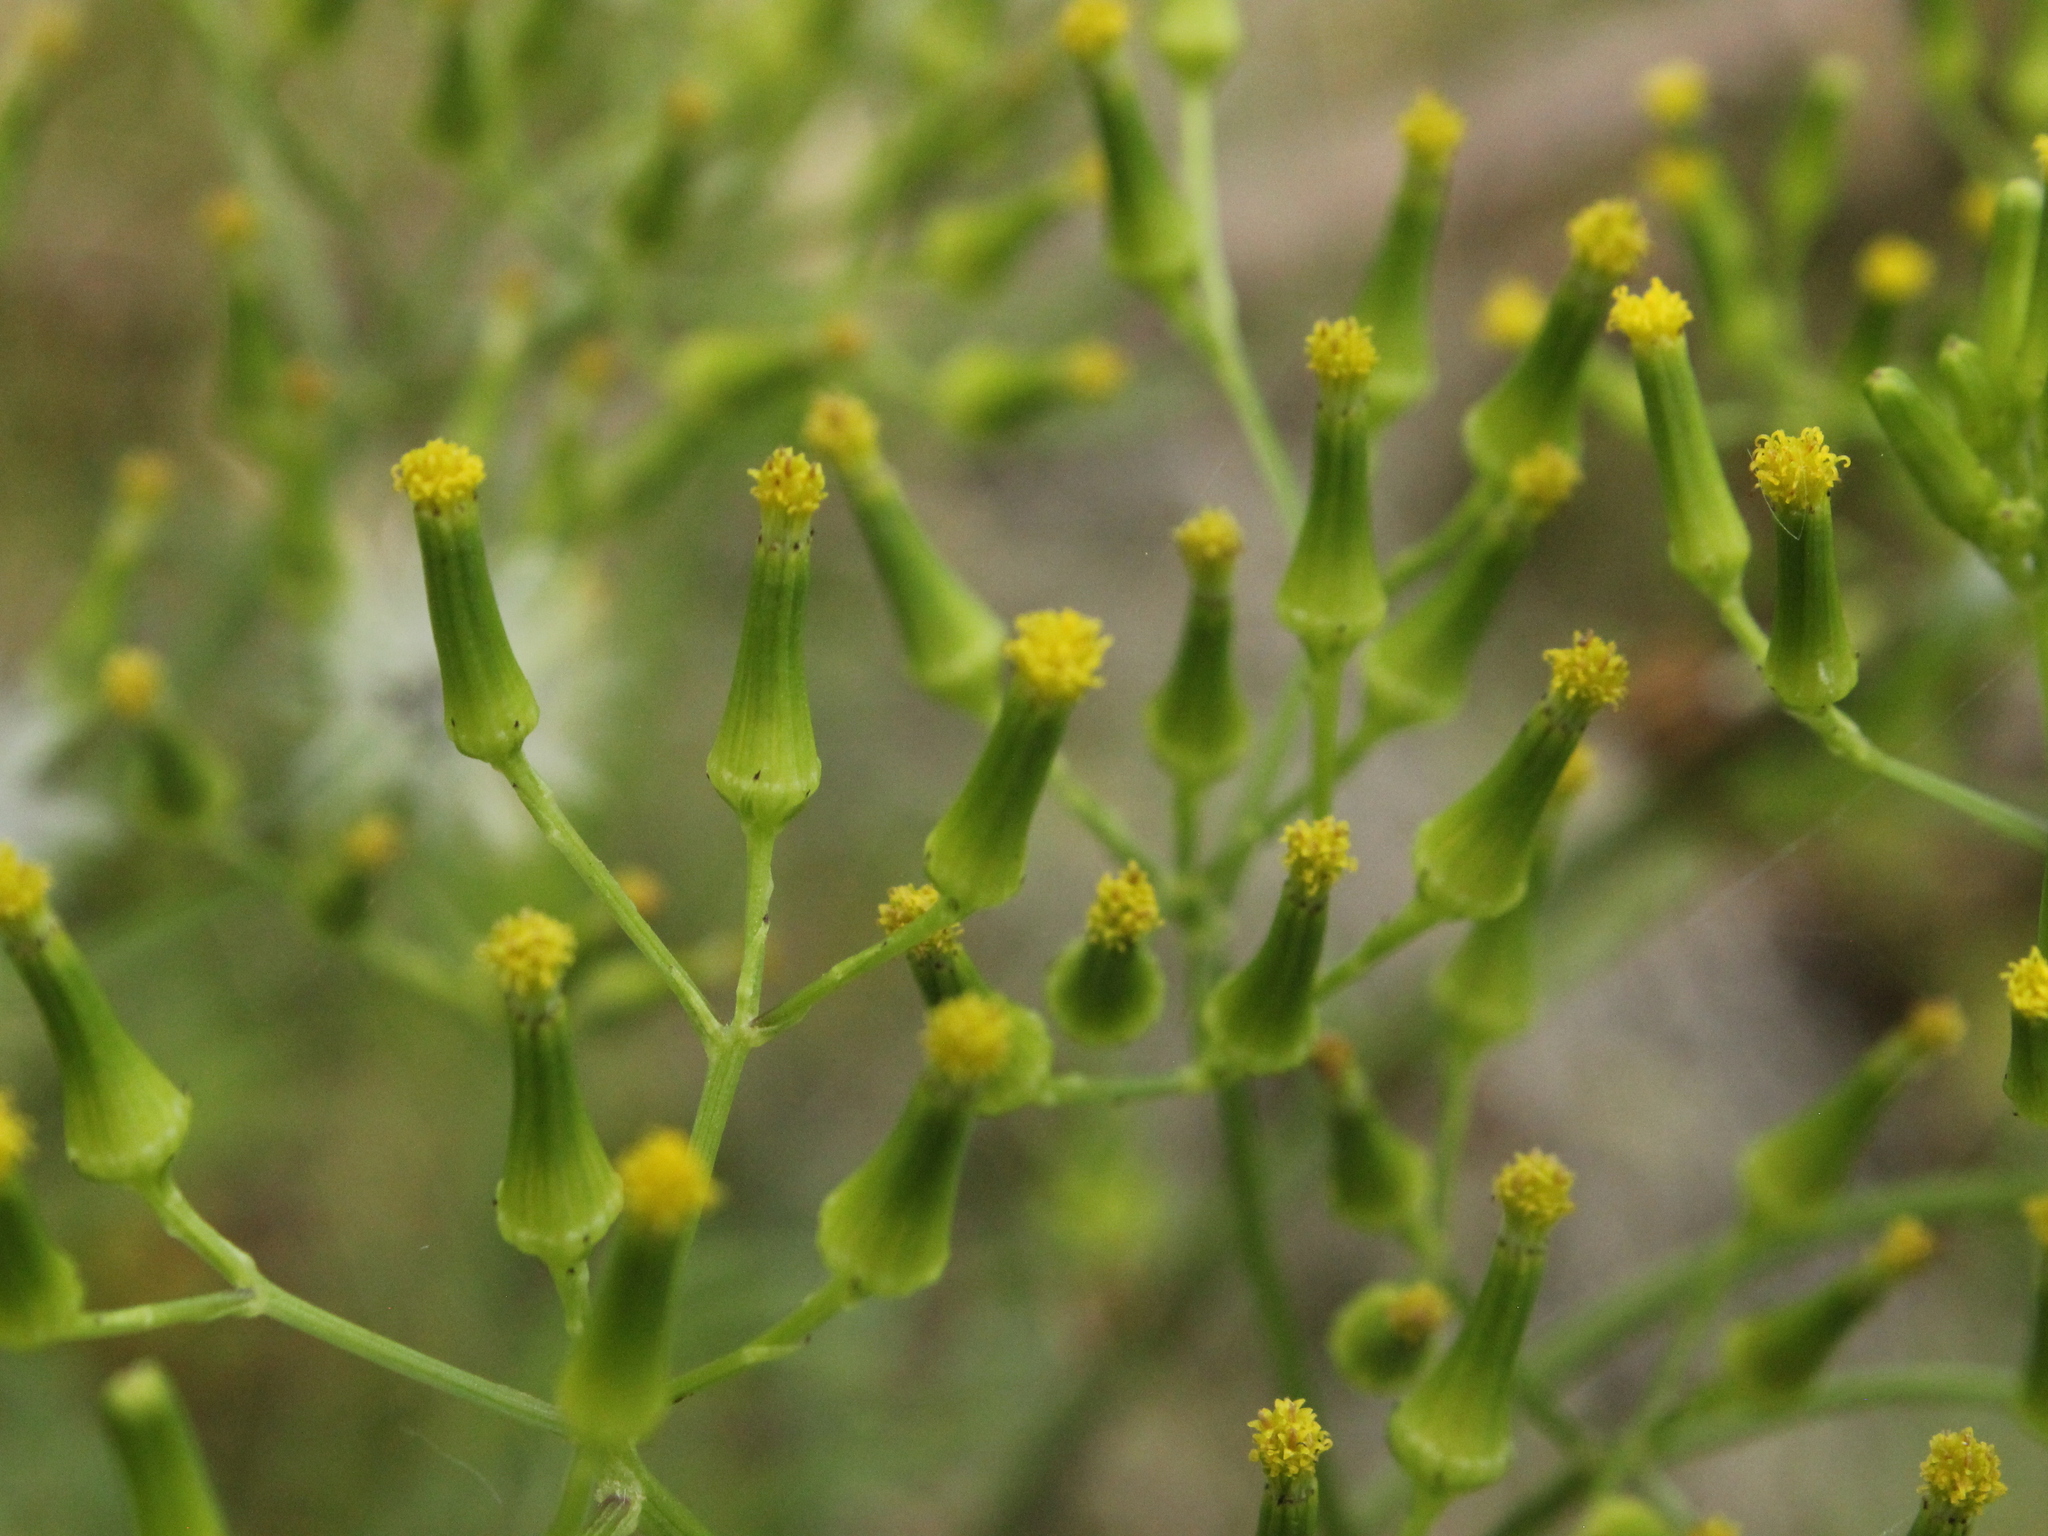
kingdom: Plantae
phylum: Tracheophyta
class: Magnoliopsida
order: Asterales
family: Asteraceae
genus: Senecio
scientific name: Senecio bipinnatisectus
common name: Australian fireweed
